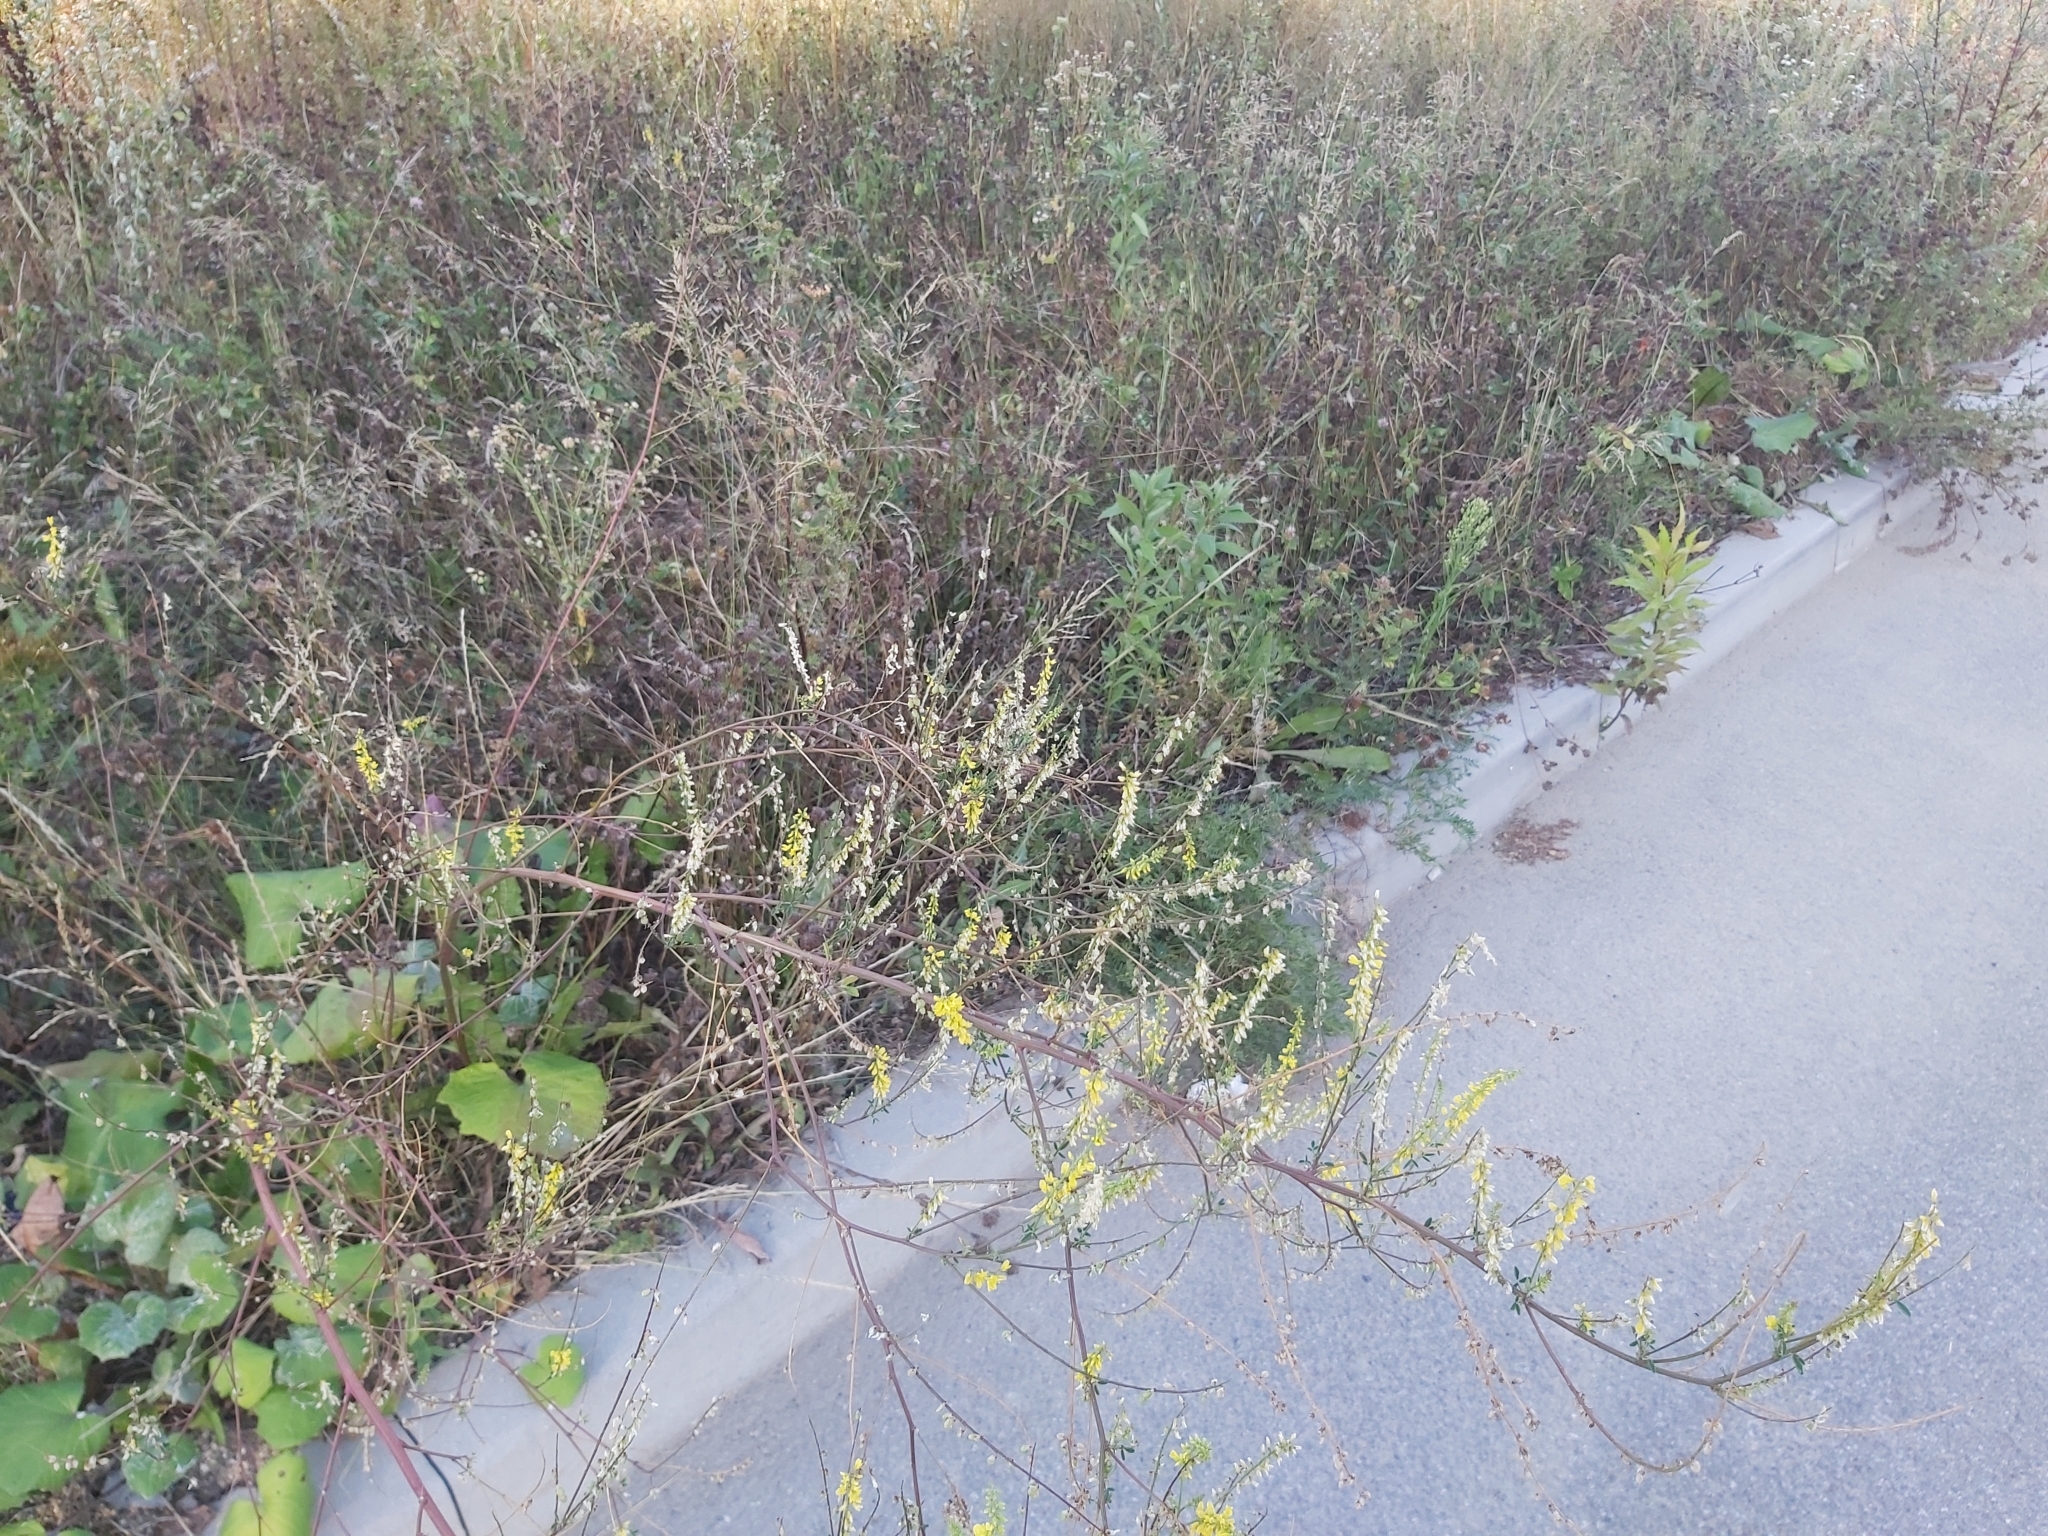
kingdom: Plantae
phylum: Tracheophyta
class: Magnoliopsida
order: Fabales
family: Fabaceae
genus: Melilotus
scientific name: Melilotus officinalis
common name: Sweetclover
